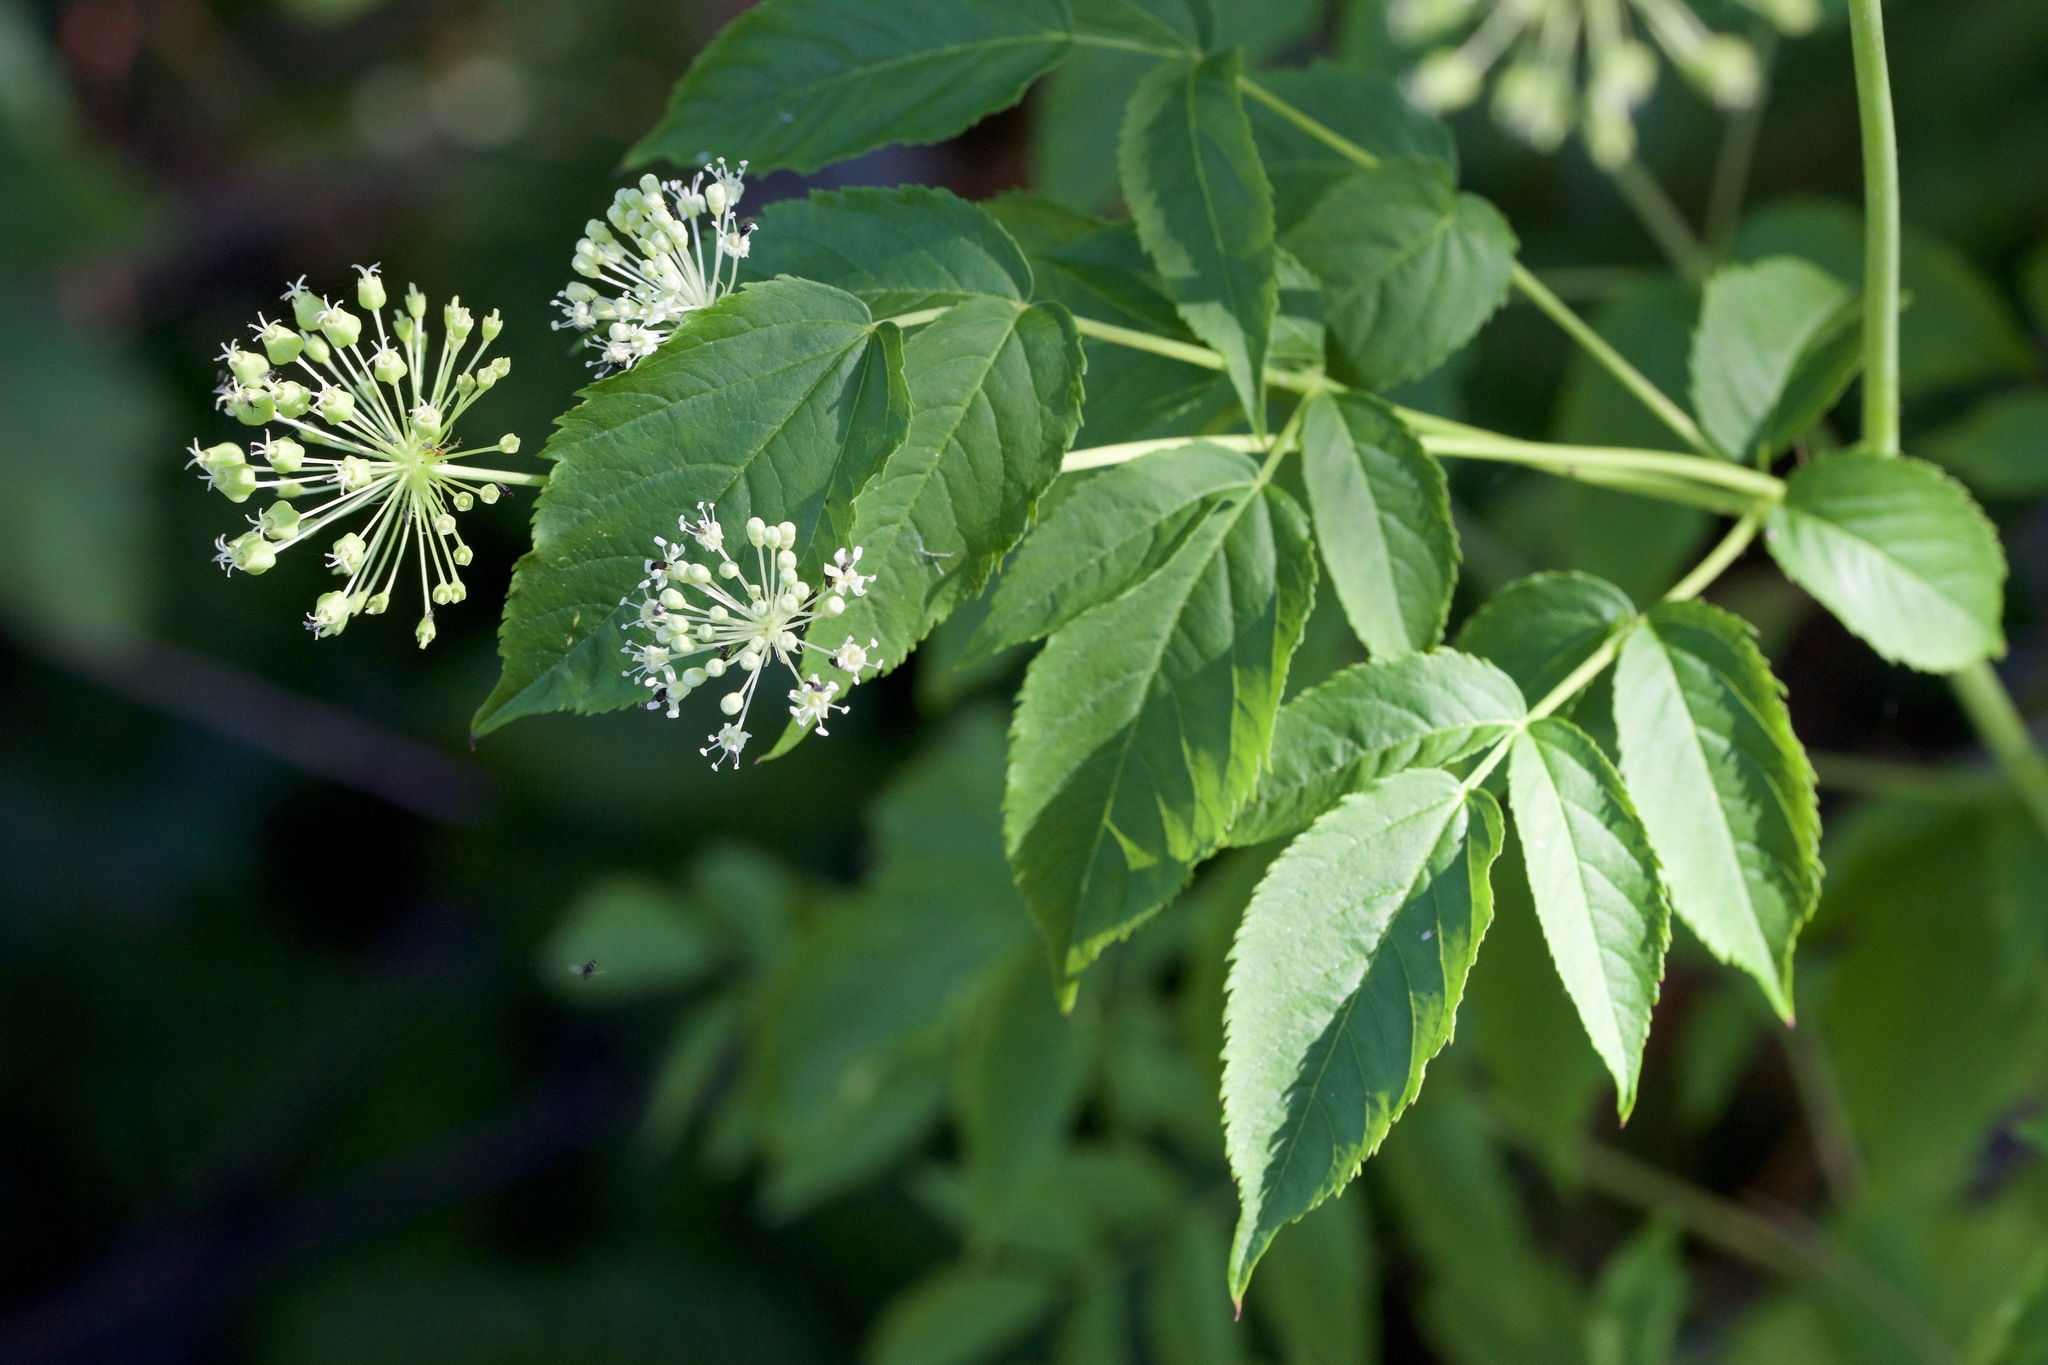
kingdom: Plantae
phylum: Tracheophyta
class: Magnoliopsida
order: Apiales
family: Araliaceae
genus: Aralia
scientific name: Aralia hispida
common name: Bristly sarsaparilla
